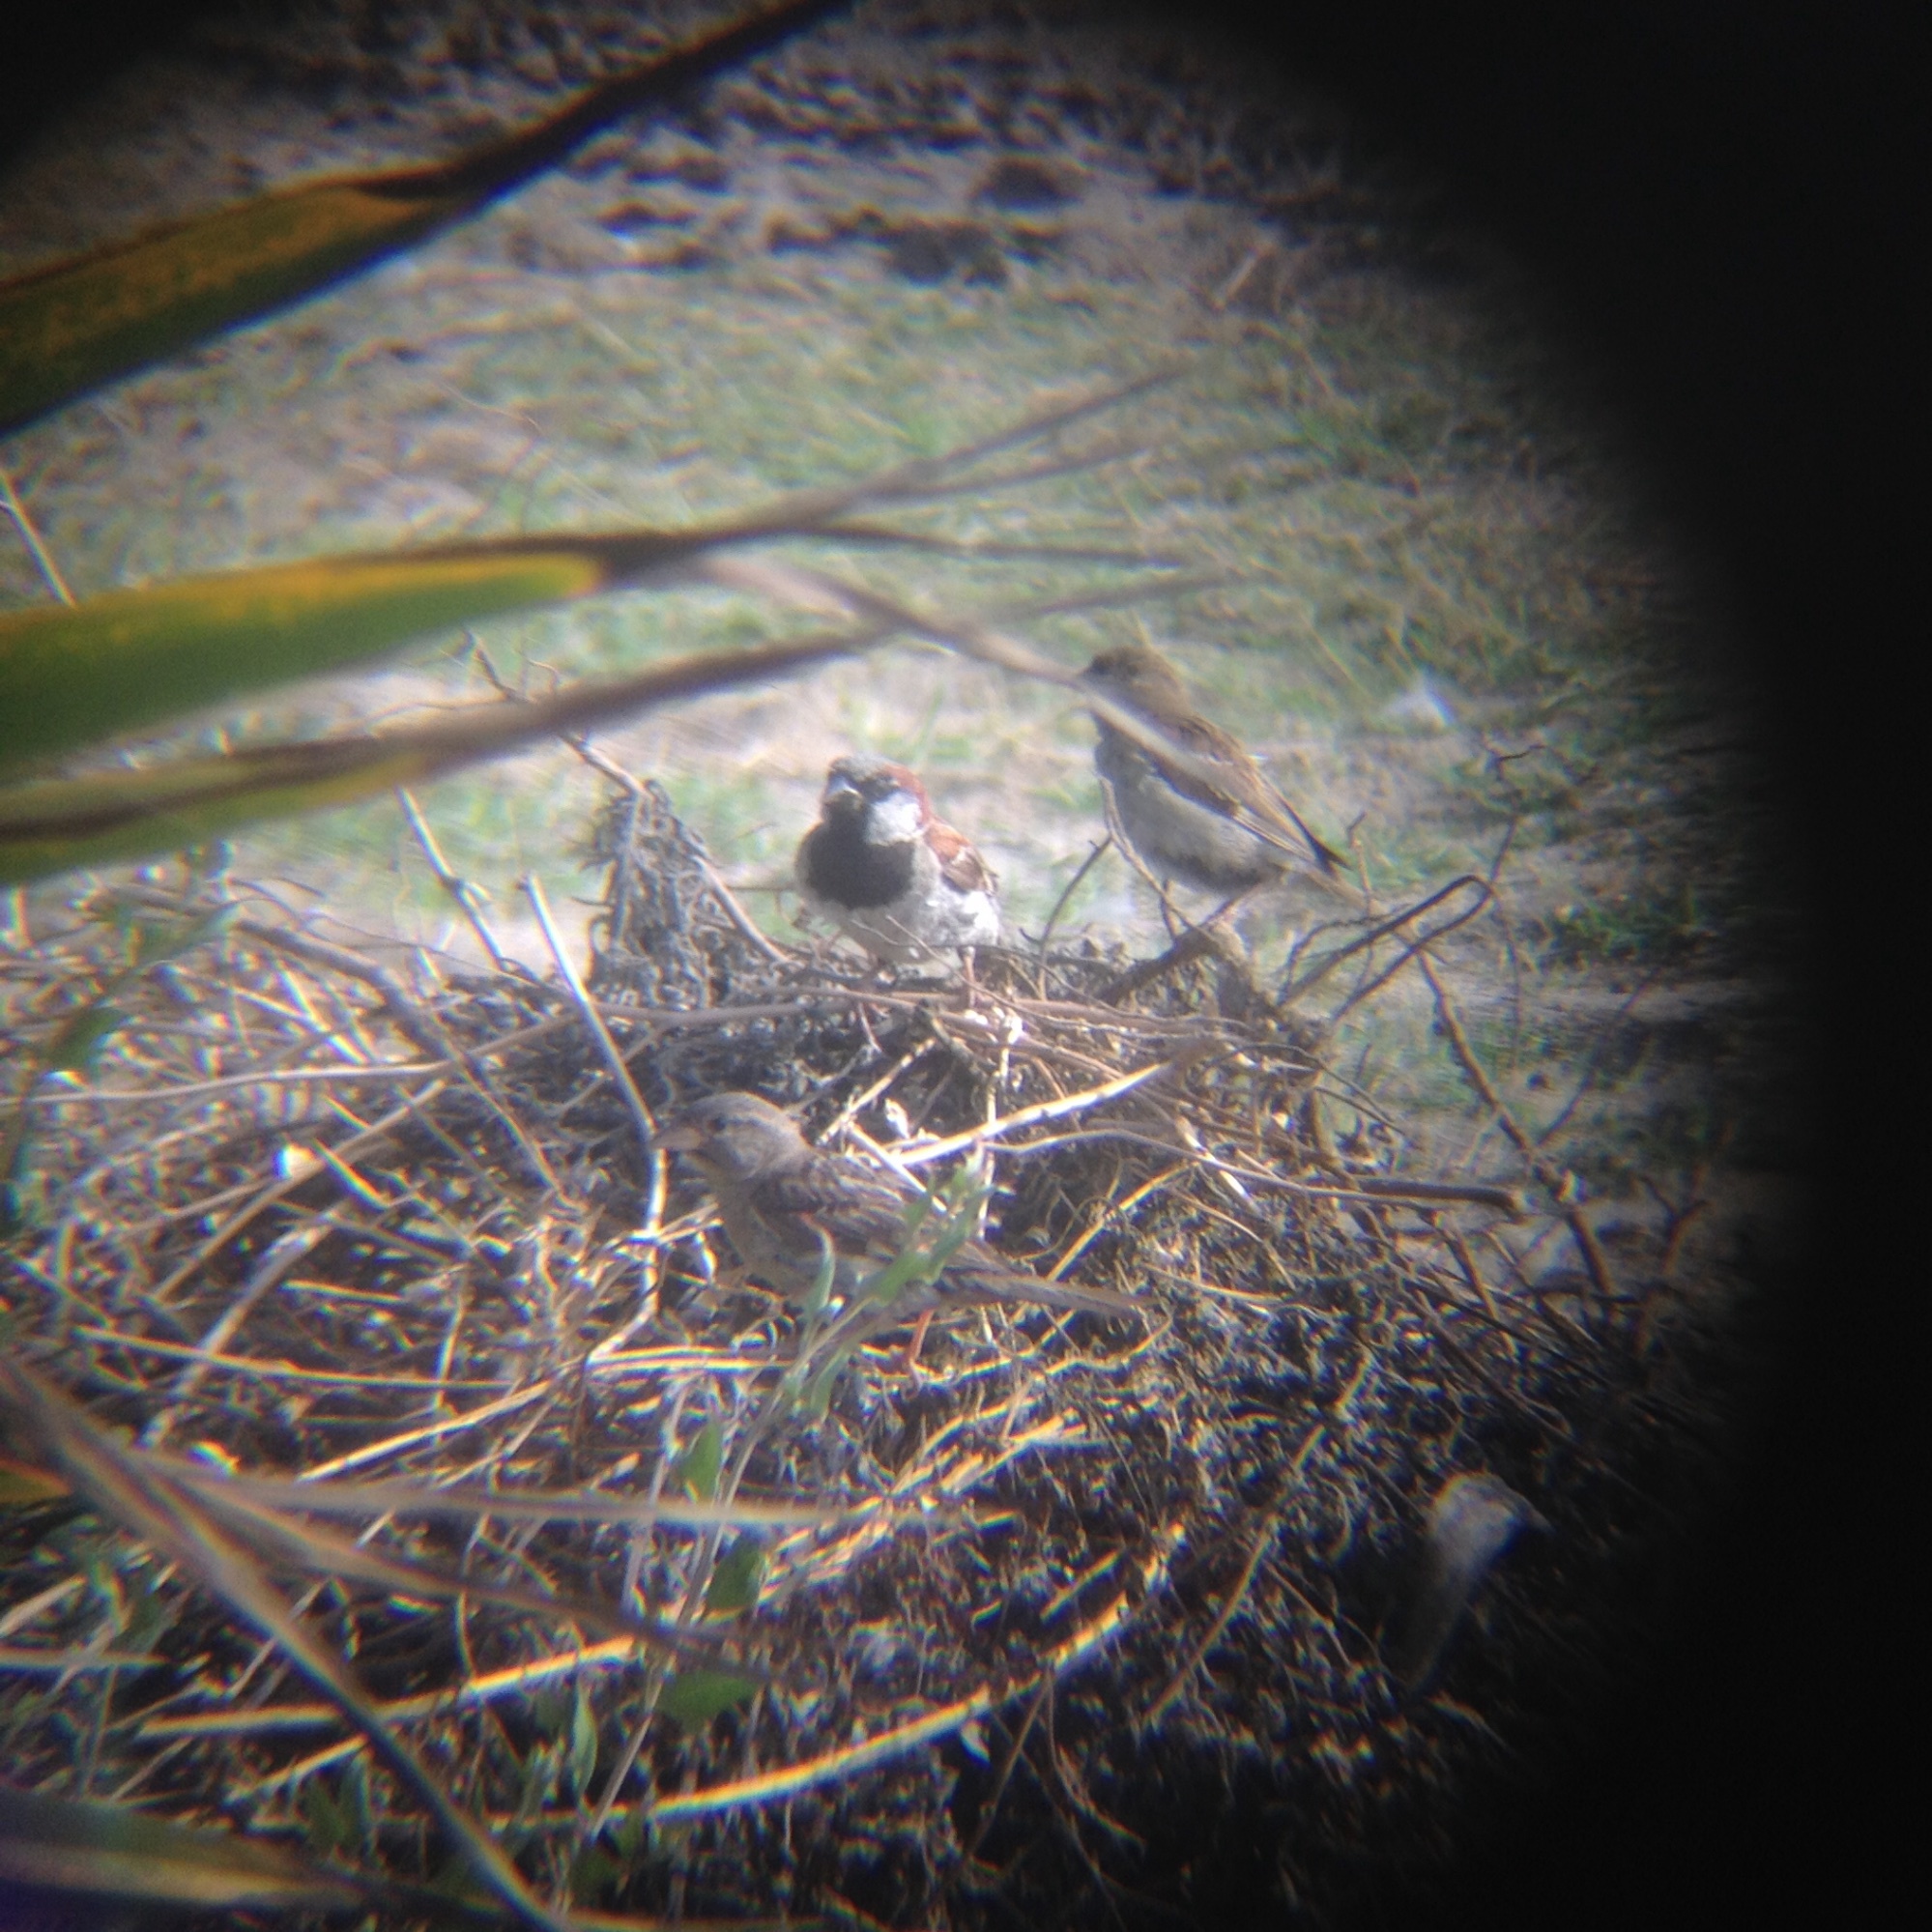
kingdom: Animalia
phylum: Chordata
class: Aves
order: Passeriformes
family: Passeridae
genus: Passer
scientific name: Passer domesticus
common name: House sparrow
